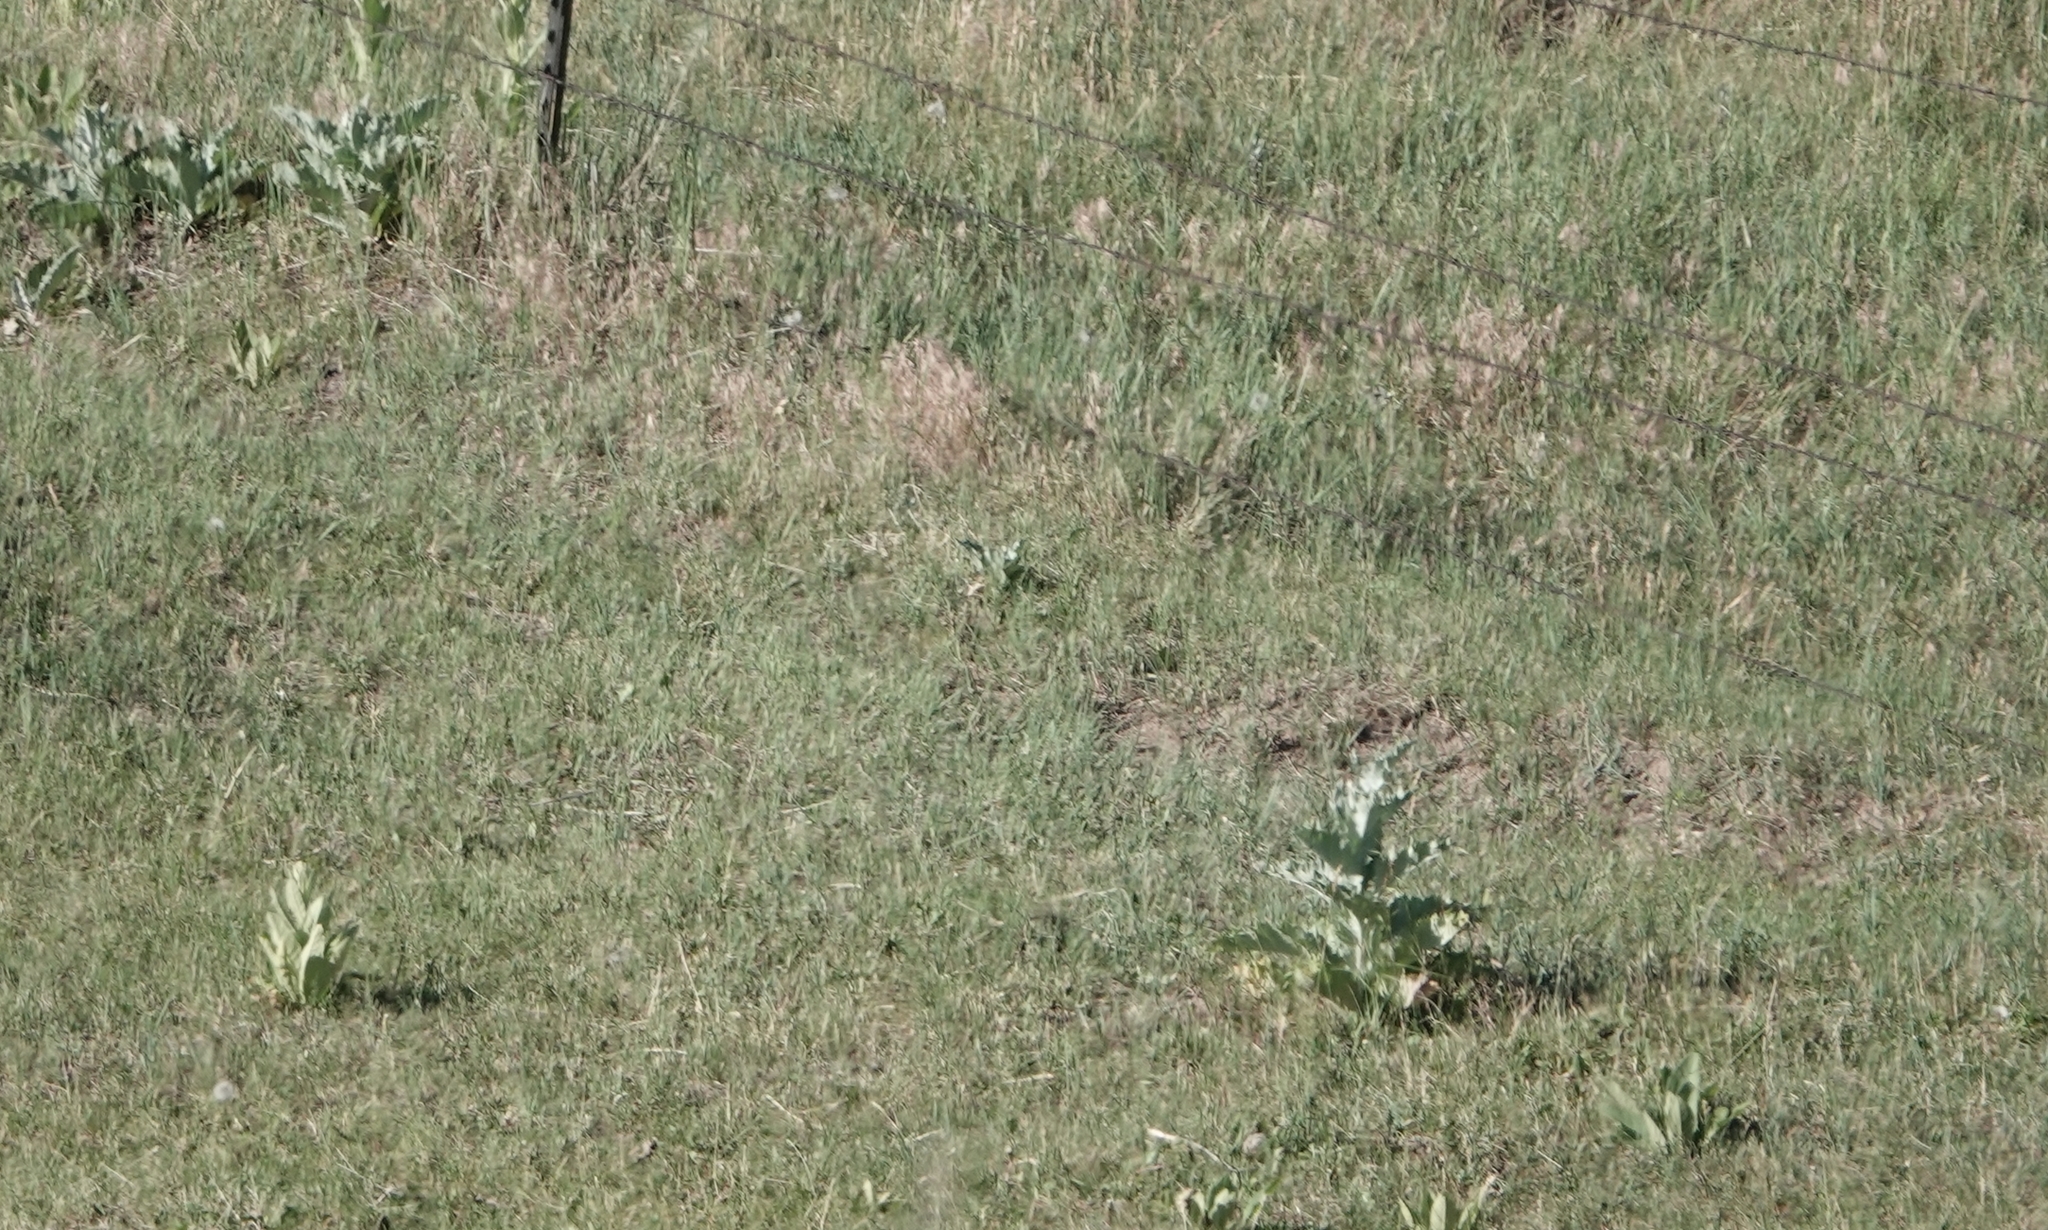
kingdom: Plantae
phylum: Tracheophyta
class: Magnoliopsida
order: Asterales
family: Asteraceae
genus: Onopordum
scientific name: Onopordum acanthium
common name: Scotch thistle
